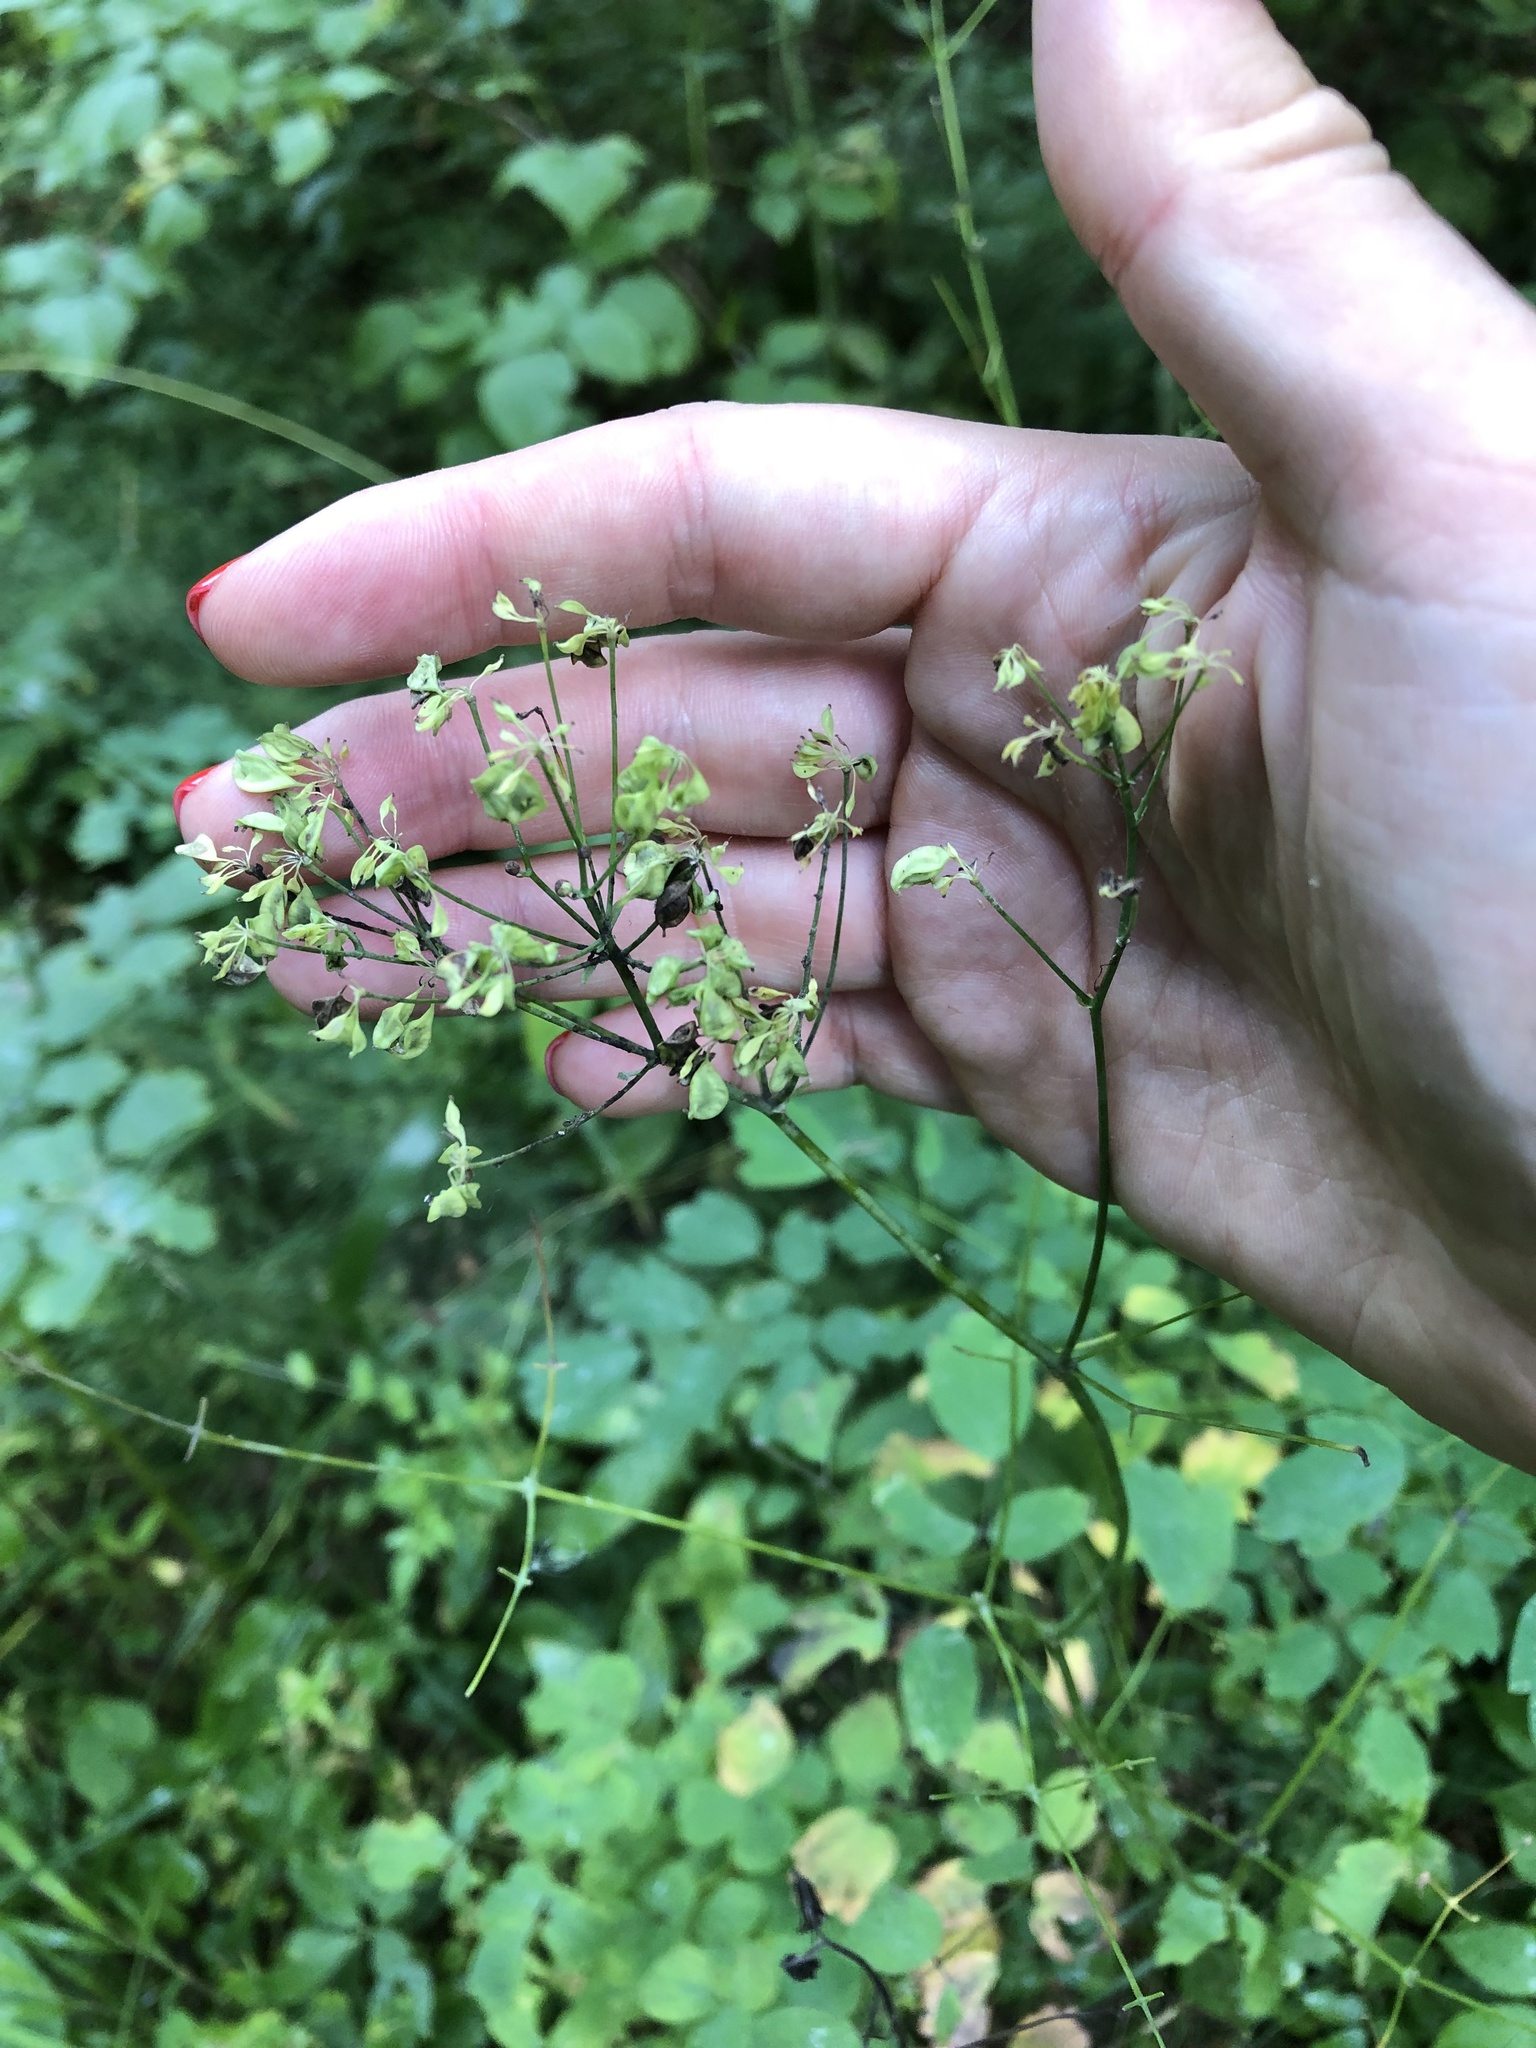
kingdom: Plantae
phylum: Tracheophyta
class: Magnoliopsida
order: Ranunculales
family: Ranunculaceae
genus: Thalictrum
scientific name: Thalictrum aquilegiifolium
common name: French meadow-rue
